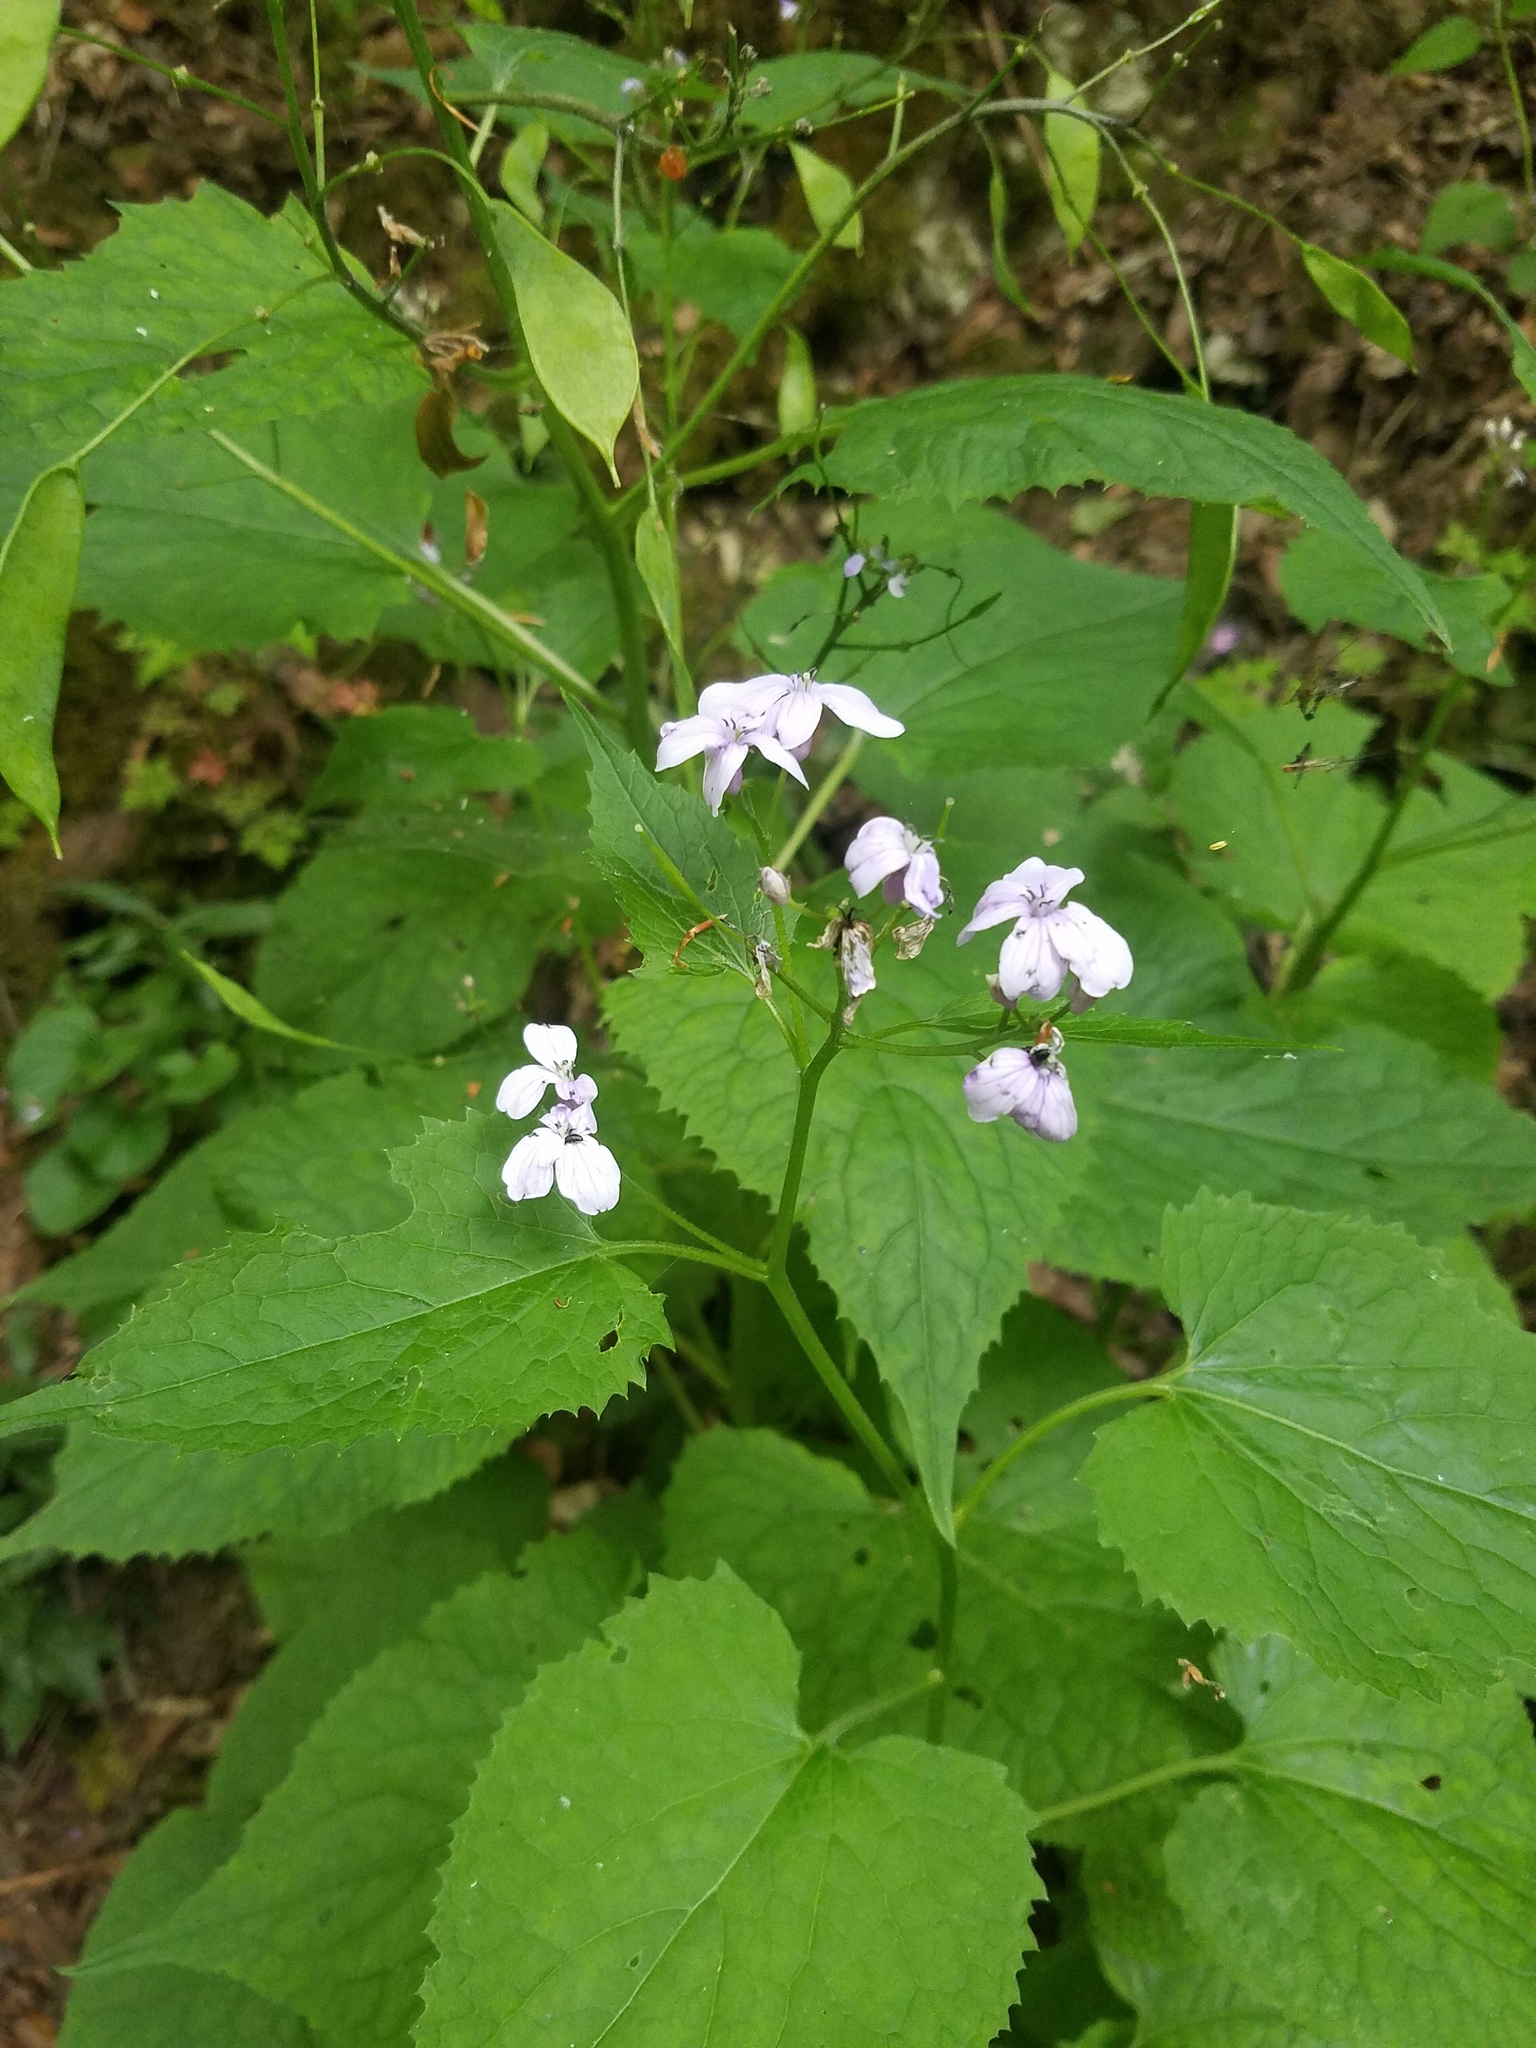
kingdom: Plantae
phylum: Tracheophyta
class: Magnoliopsida
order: Brassicales
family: Brassicaceae
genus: Lunaria
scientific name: Lunaria rediviva
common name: Perennial honesty
